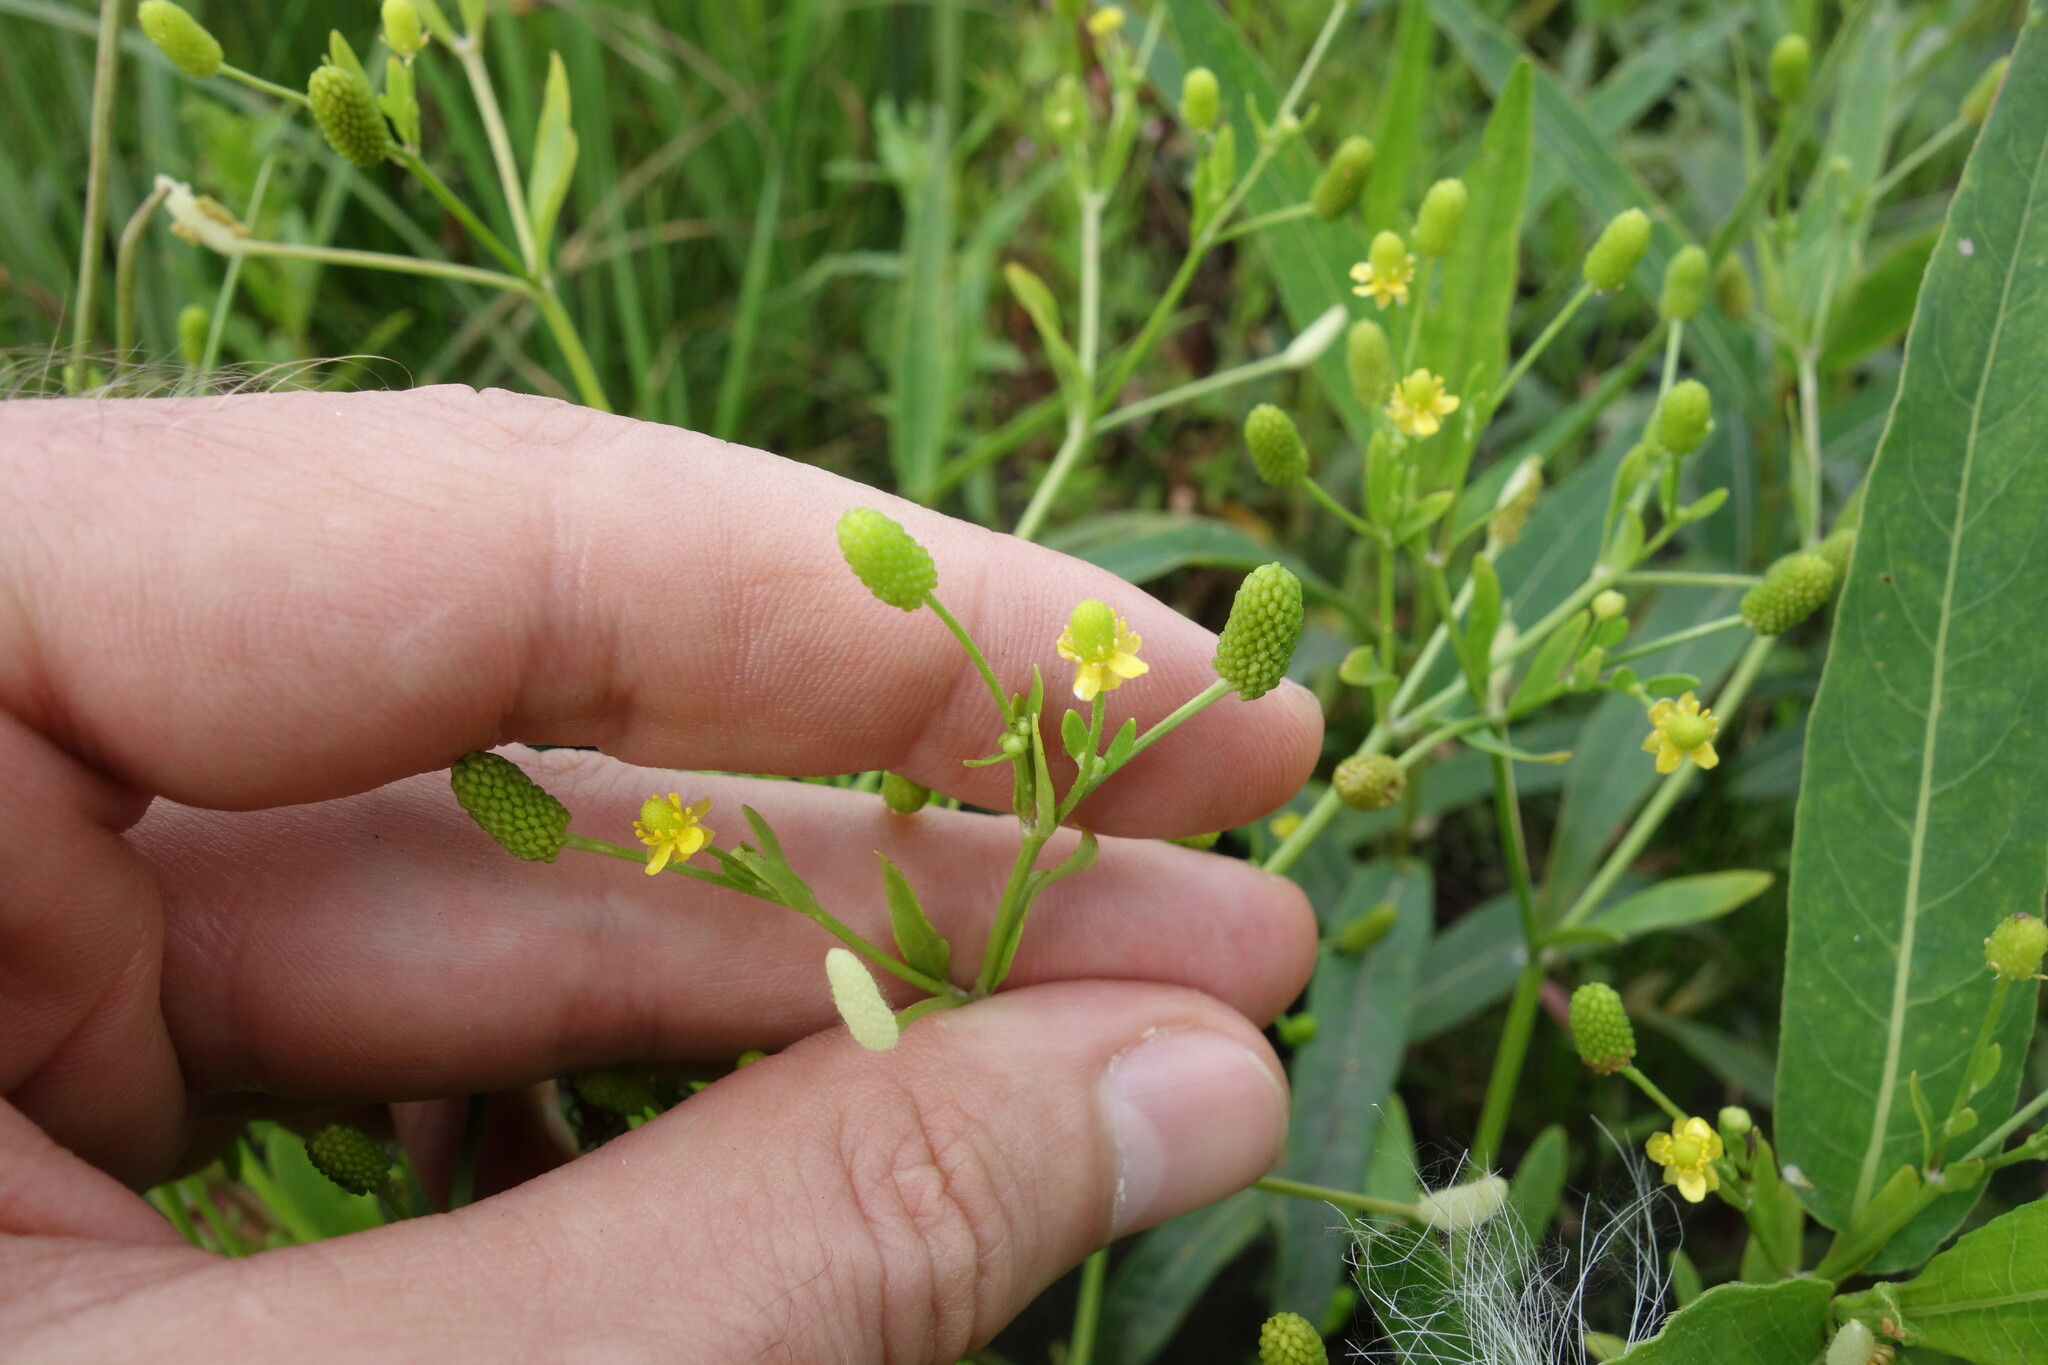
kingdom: Plantae
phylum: Tracheophyta
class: Magnoliopsida
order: Ranunculales
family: Ranunculaceae
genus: Ranunculus
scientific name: Ranunculus sceleratus
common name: Celery-leaved buttercup
